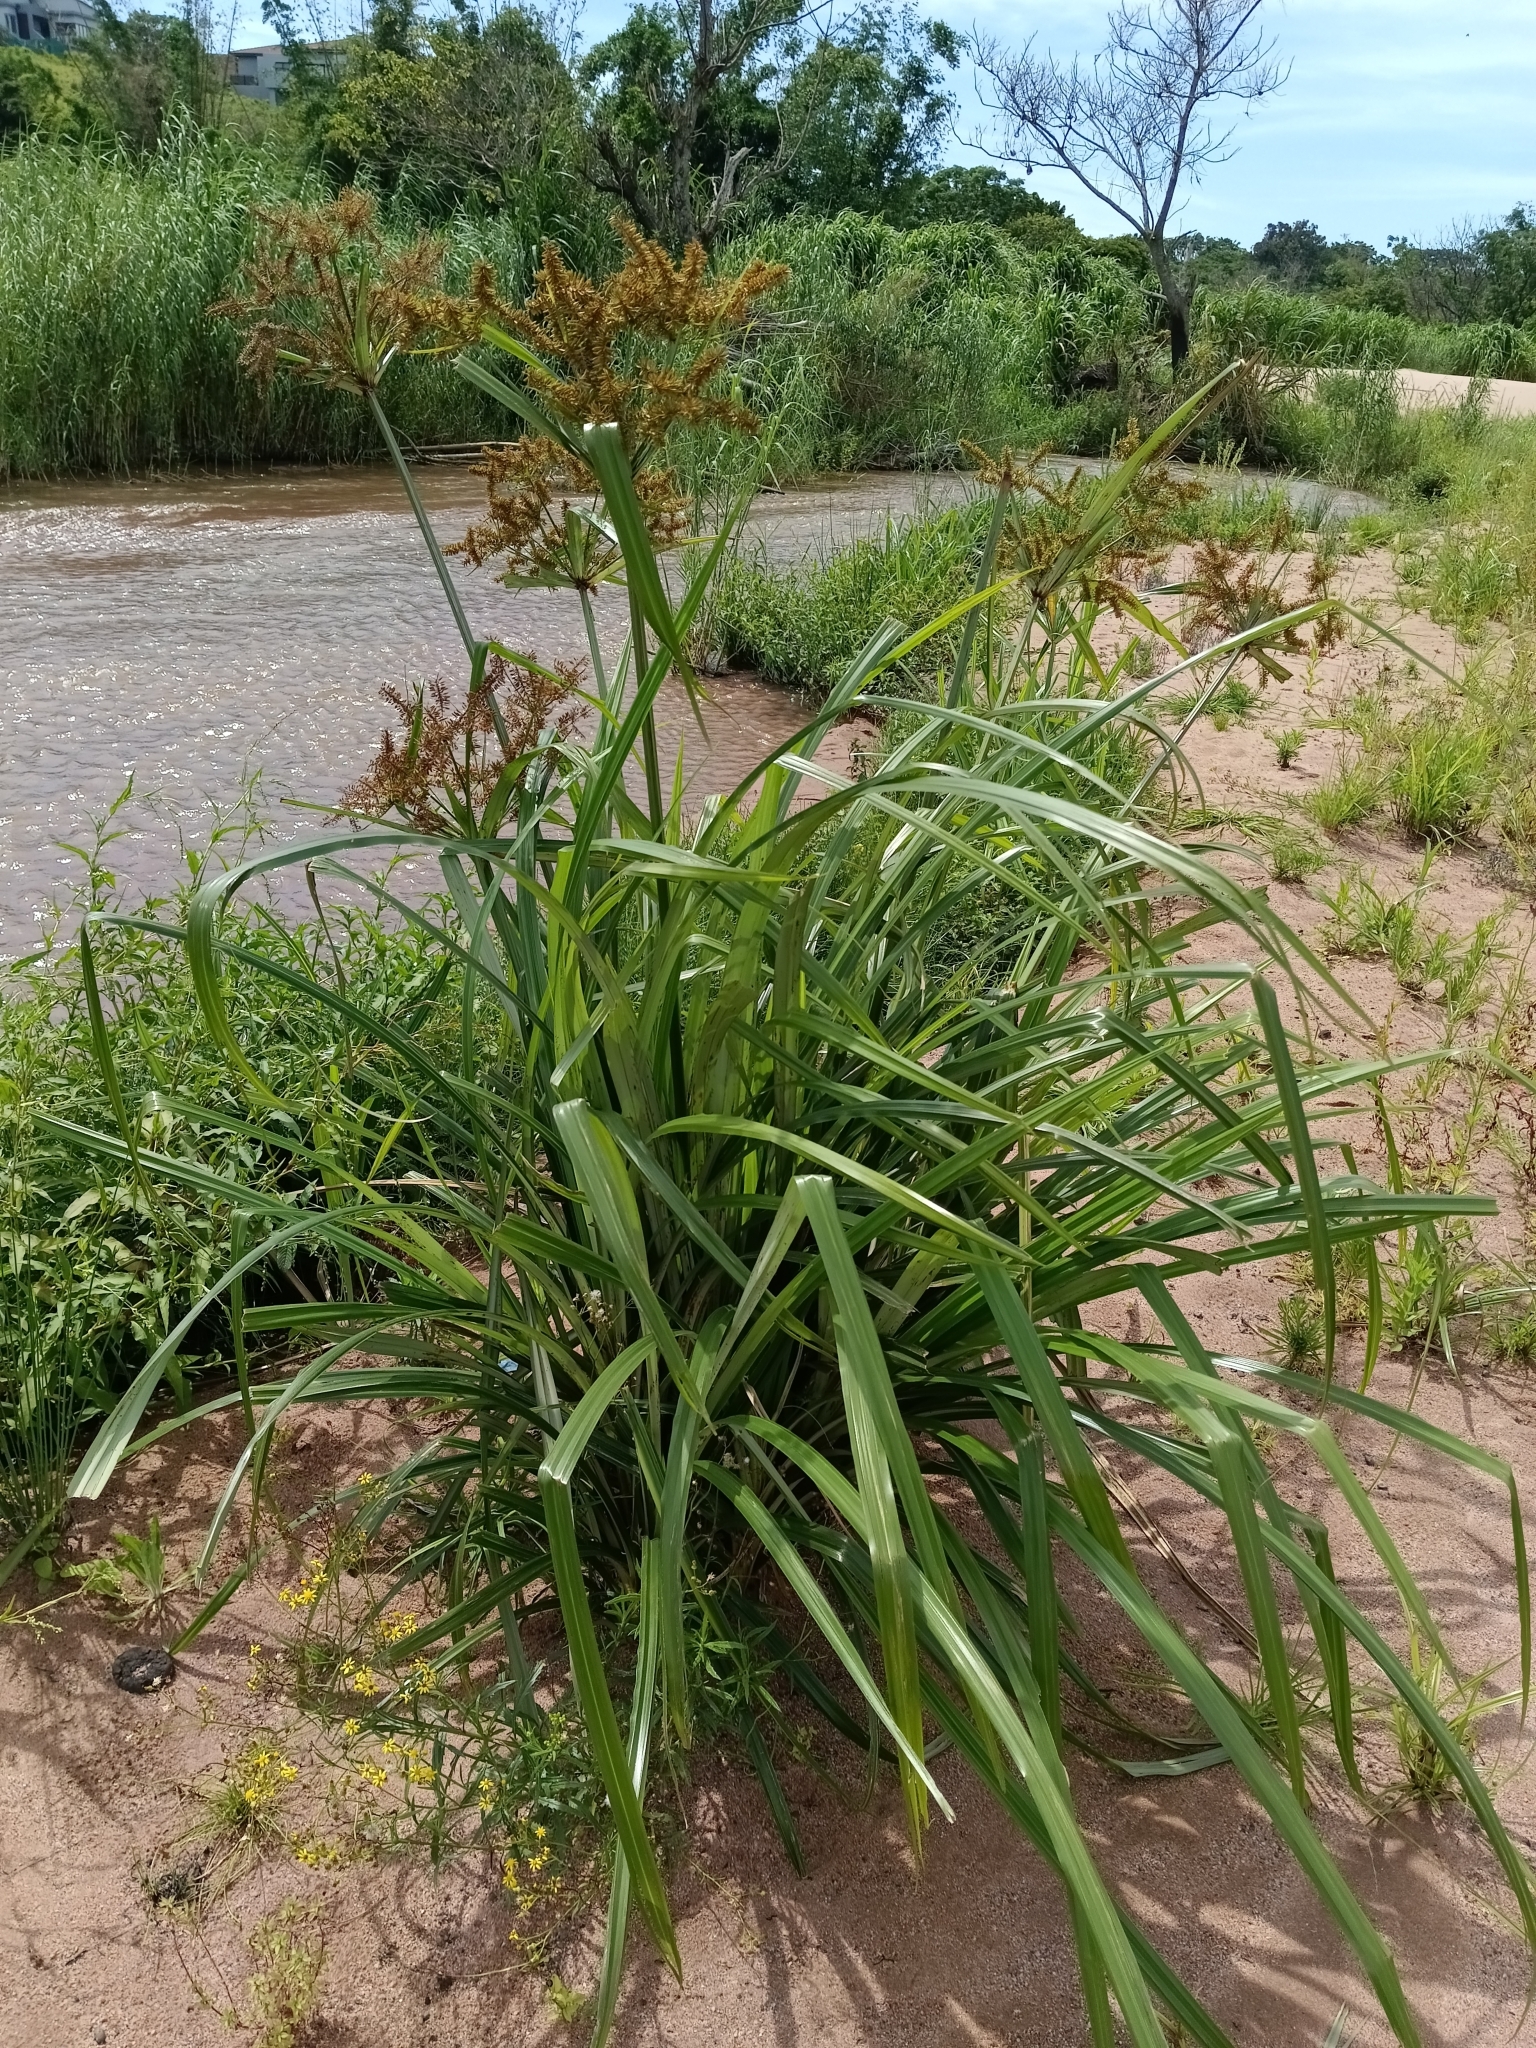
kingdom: Plantae
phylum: Tracheophyta
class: Liliopsida
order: Poales
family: Cyperaceae
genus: Cyperus
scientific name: Cyperus dives
